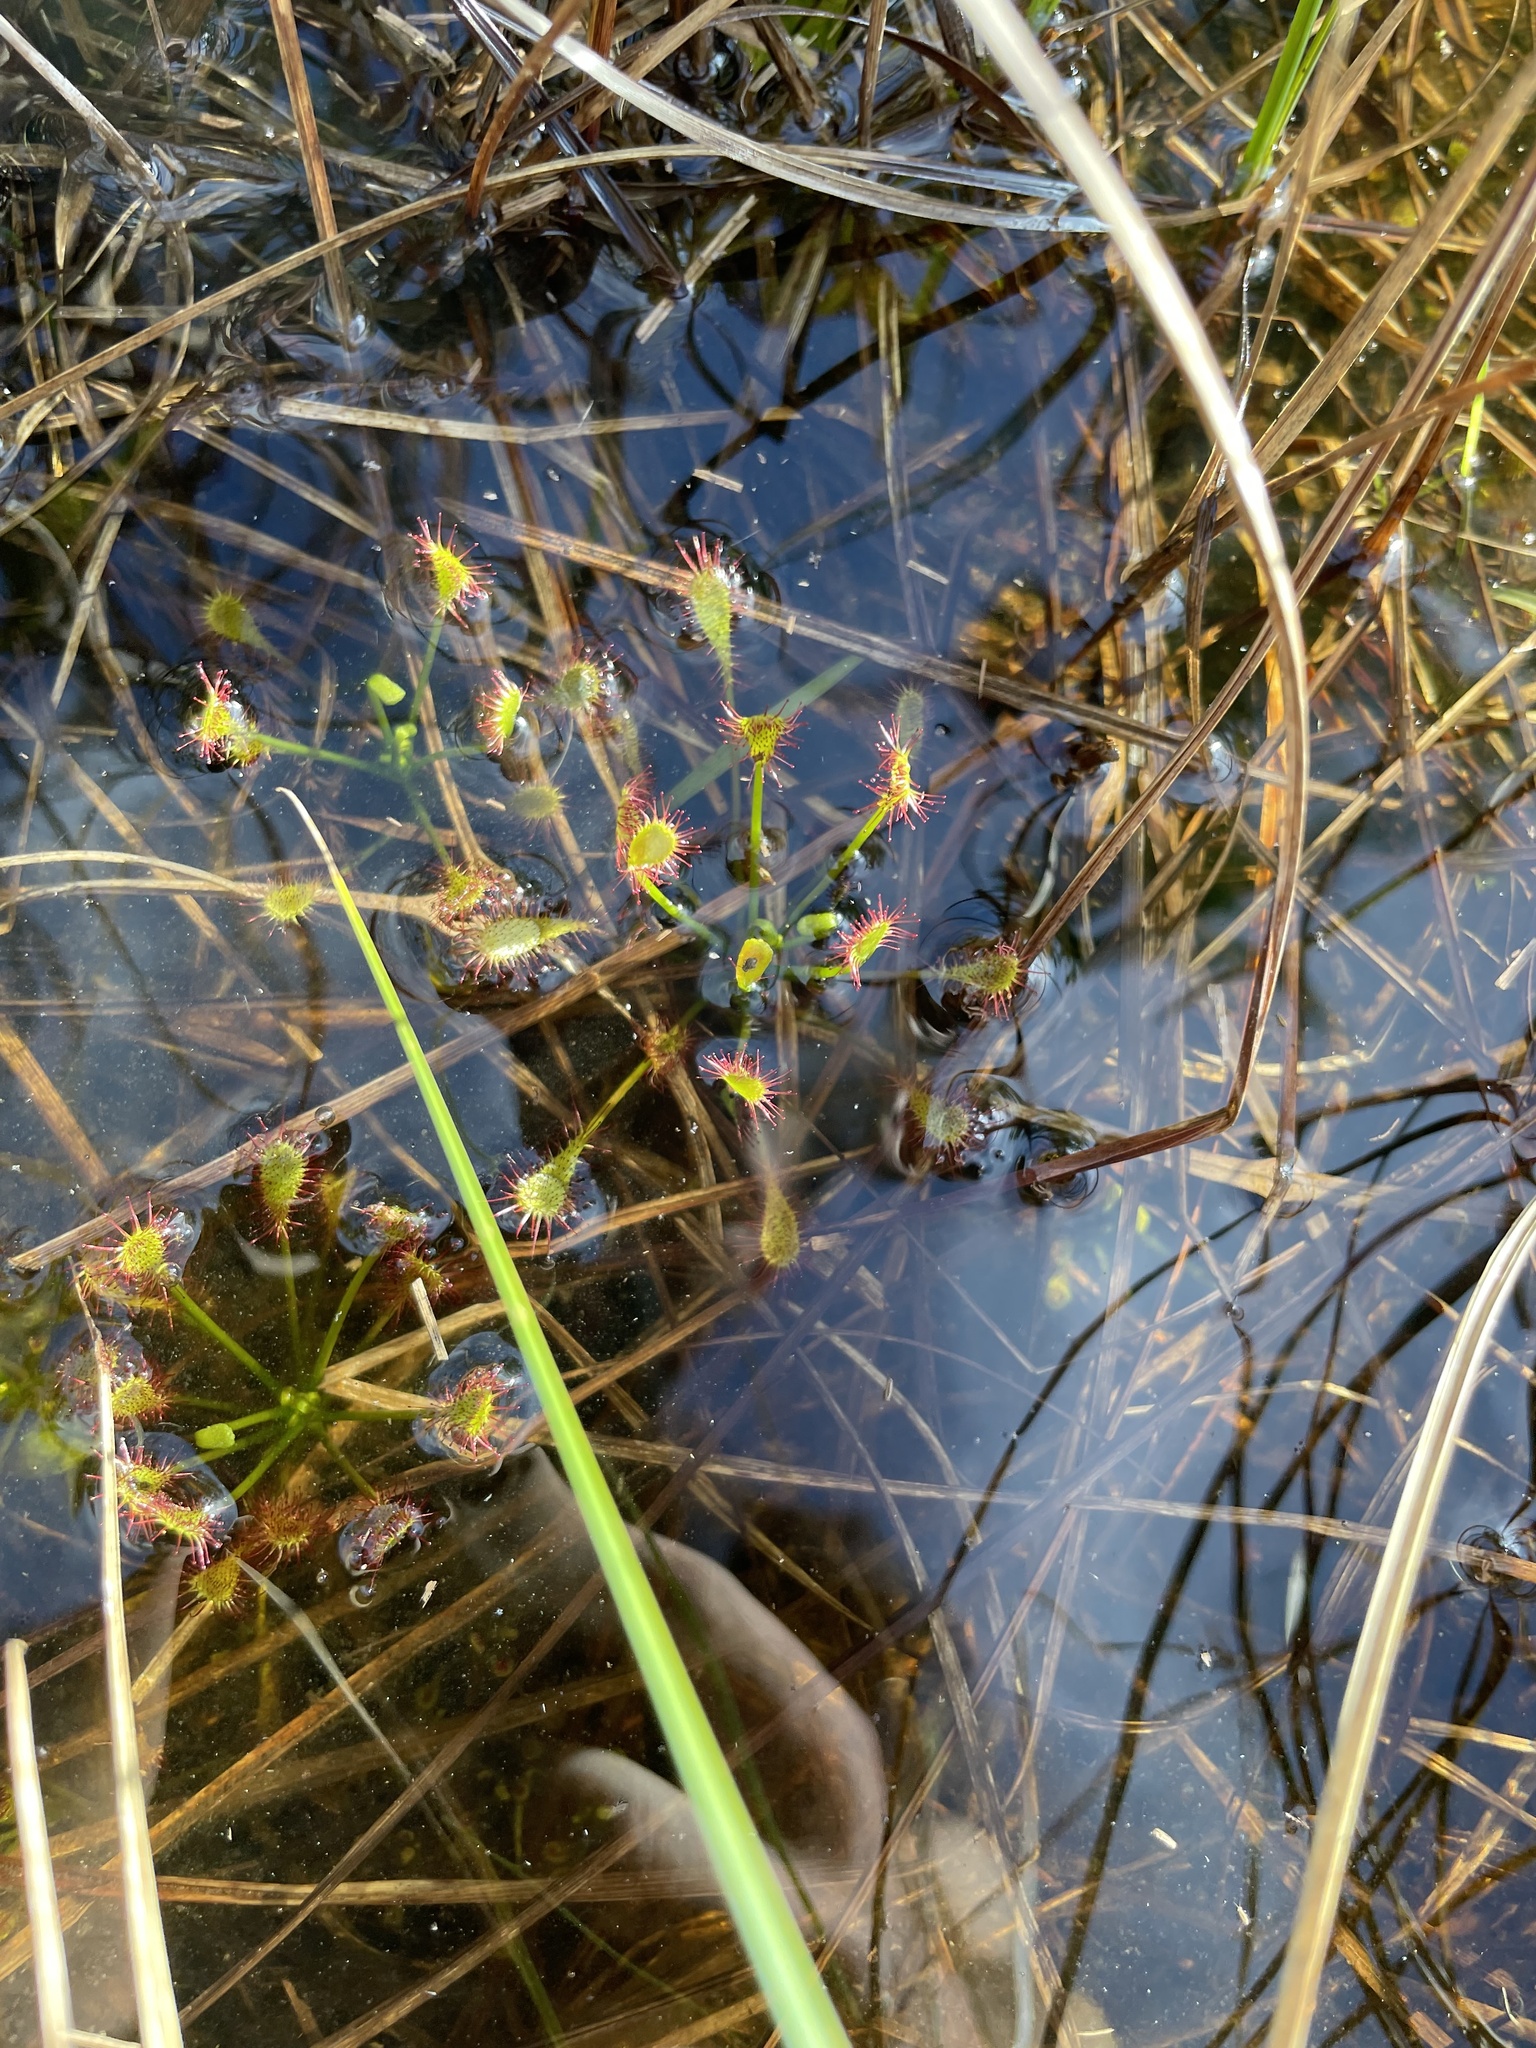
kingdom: Plantae
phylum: Tracheophyta
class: Magnoliopsida
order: Caryophyllales
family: Droseraceae
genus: Drosera
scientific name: Drosera intermedia
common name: Oblong-leaved sundew
